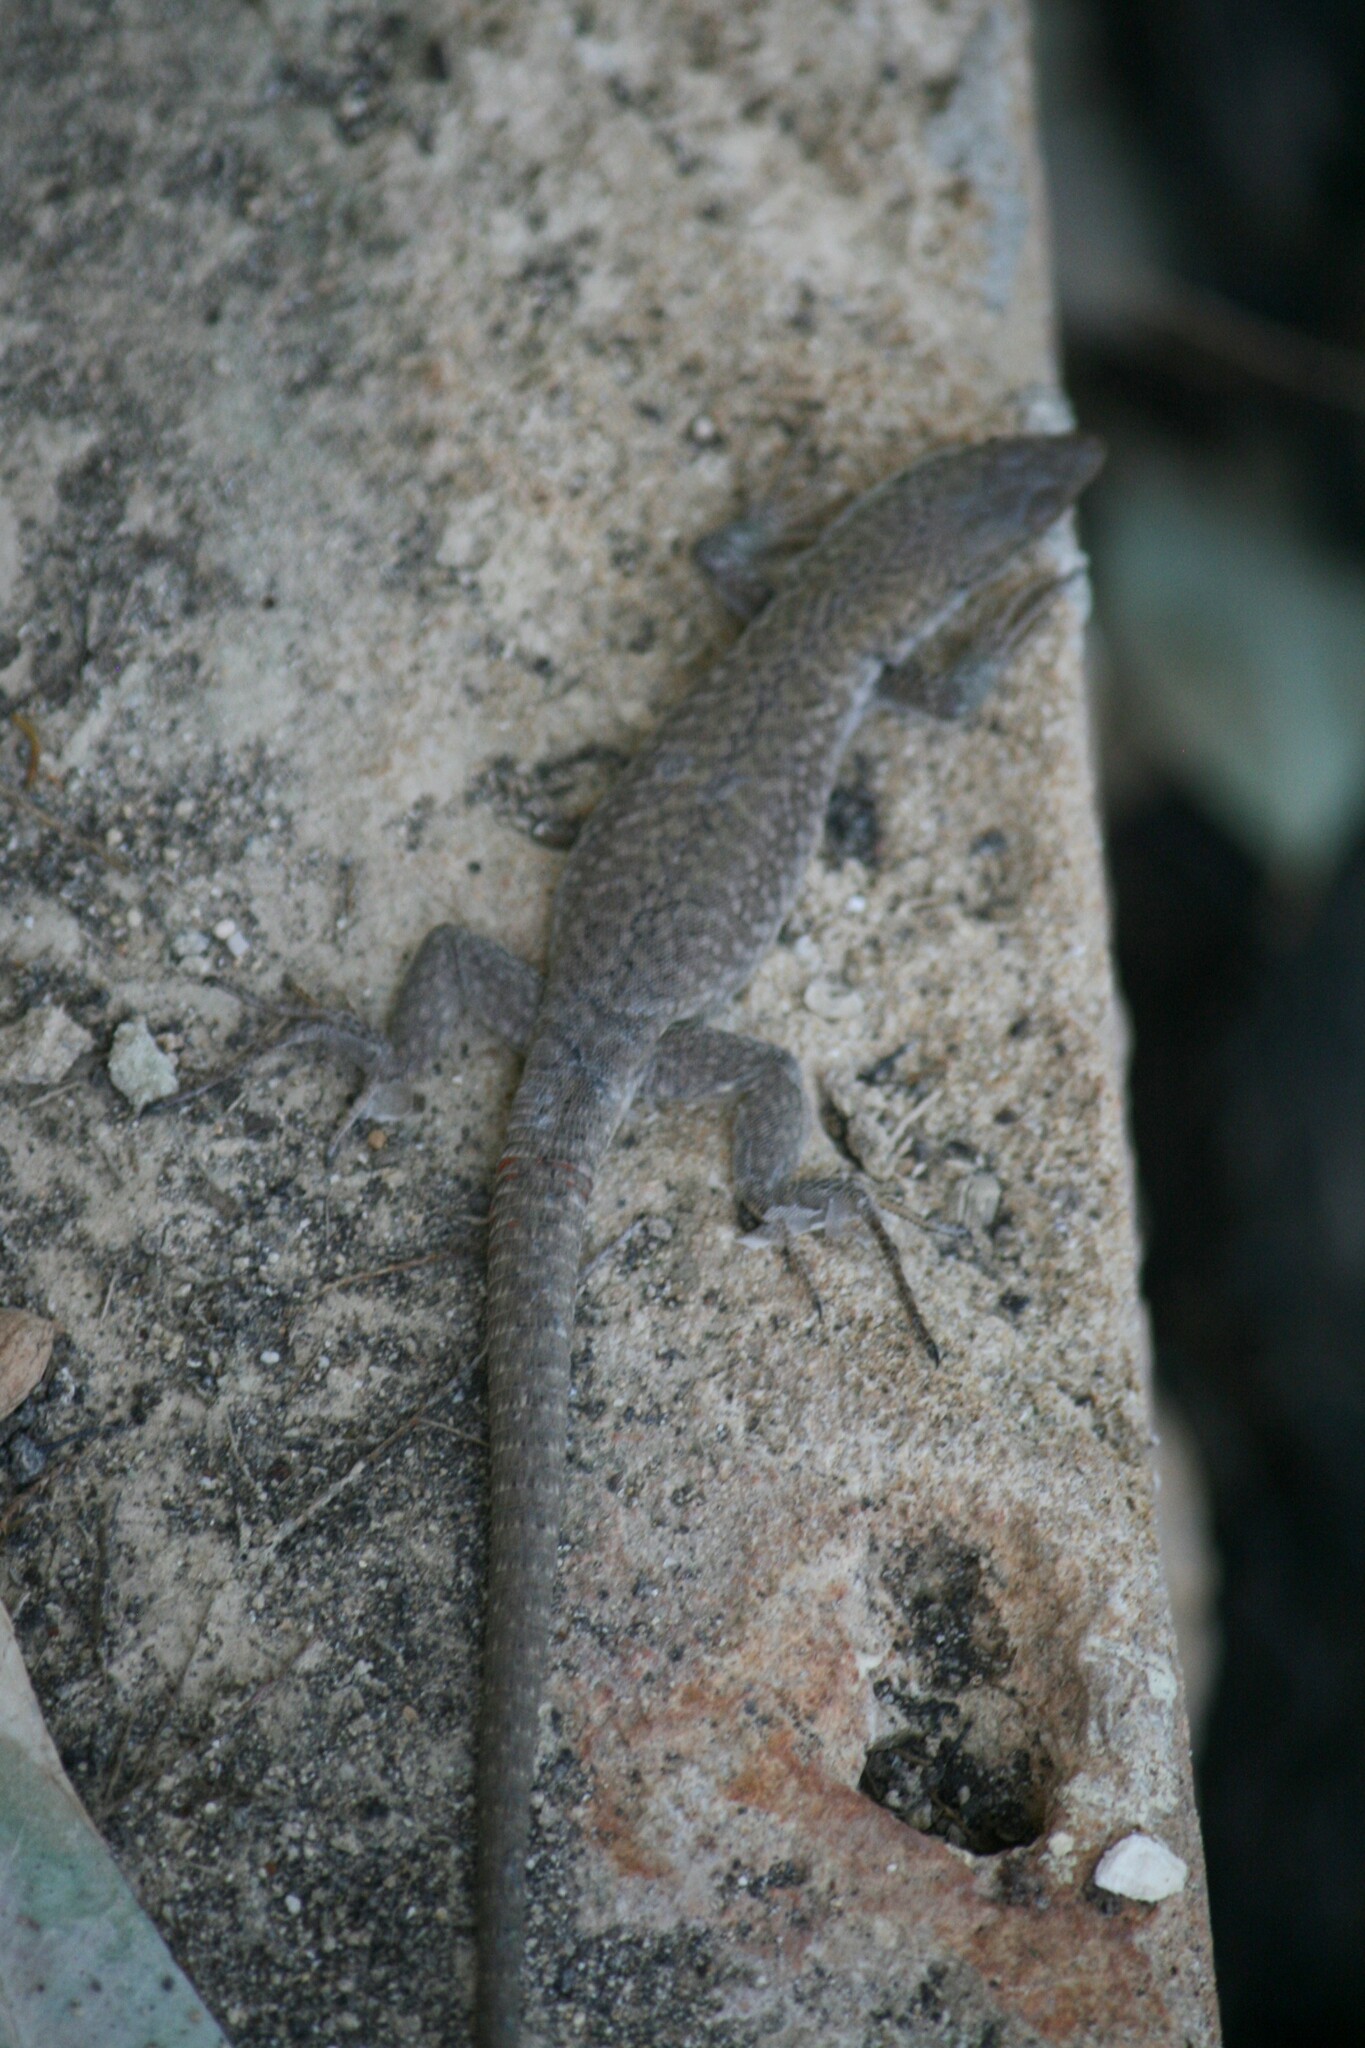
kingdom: Animalia
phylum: Chordata
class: Squamata
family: Lacertidae
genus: Podarcis
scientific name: Podarcis siculus
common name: Italian wall lizard
